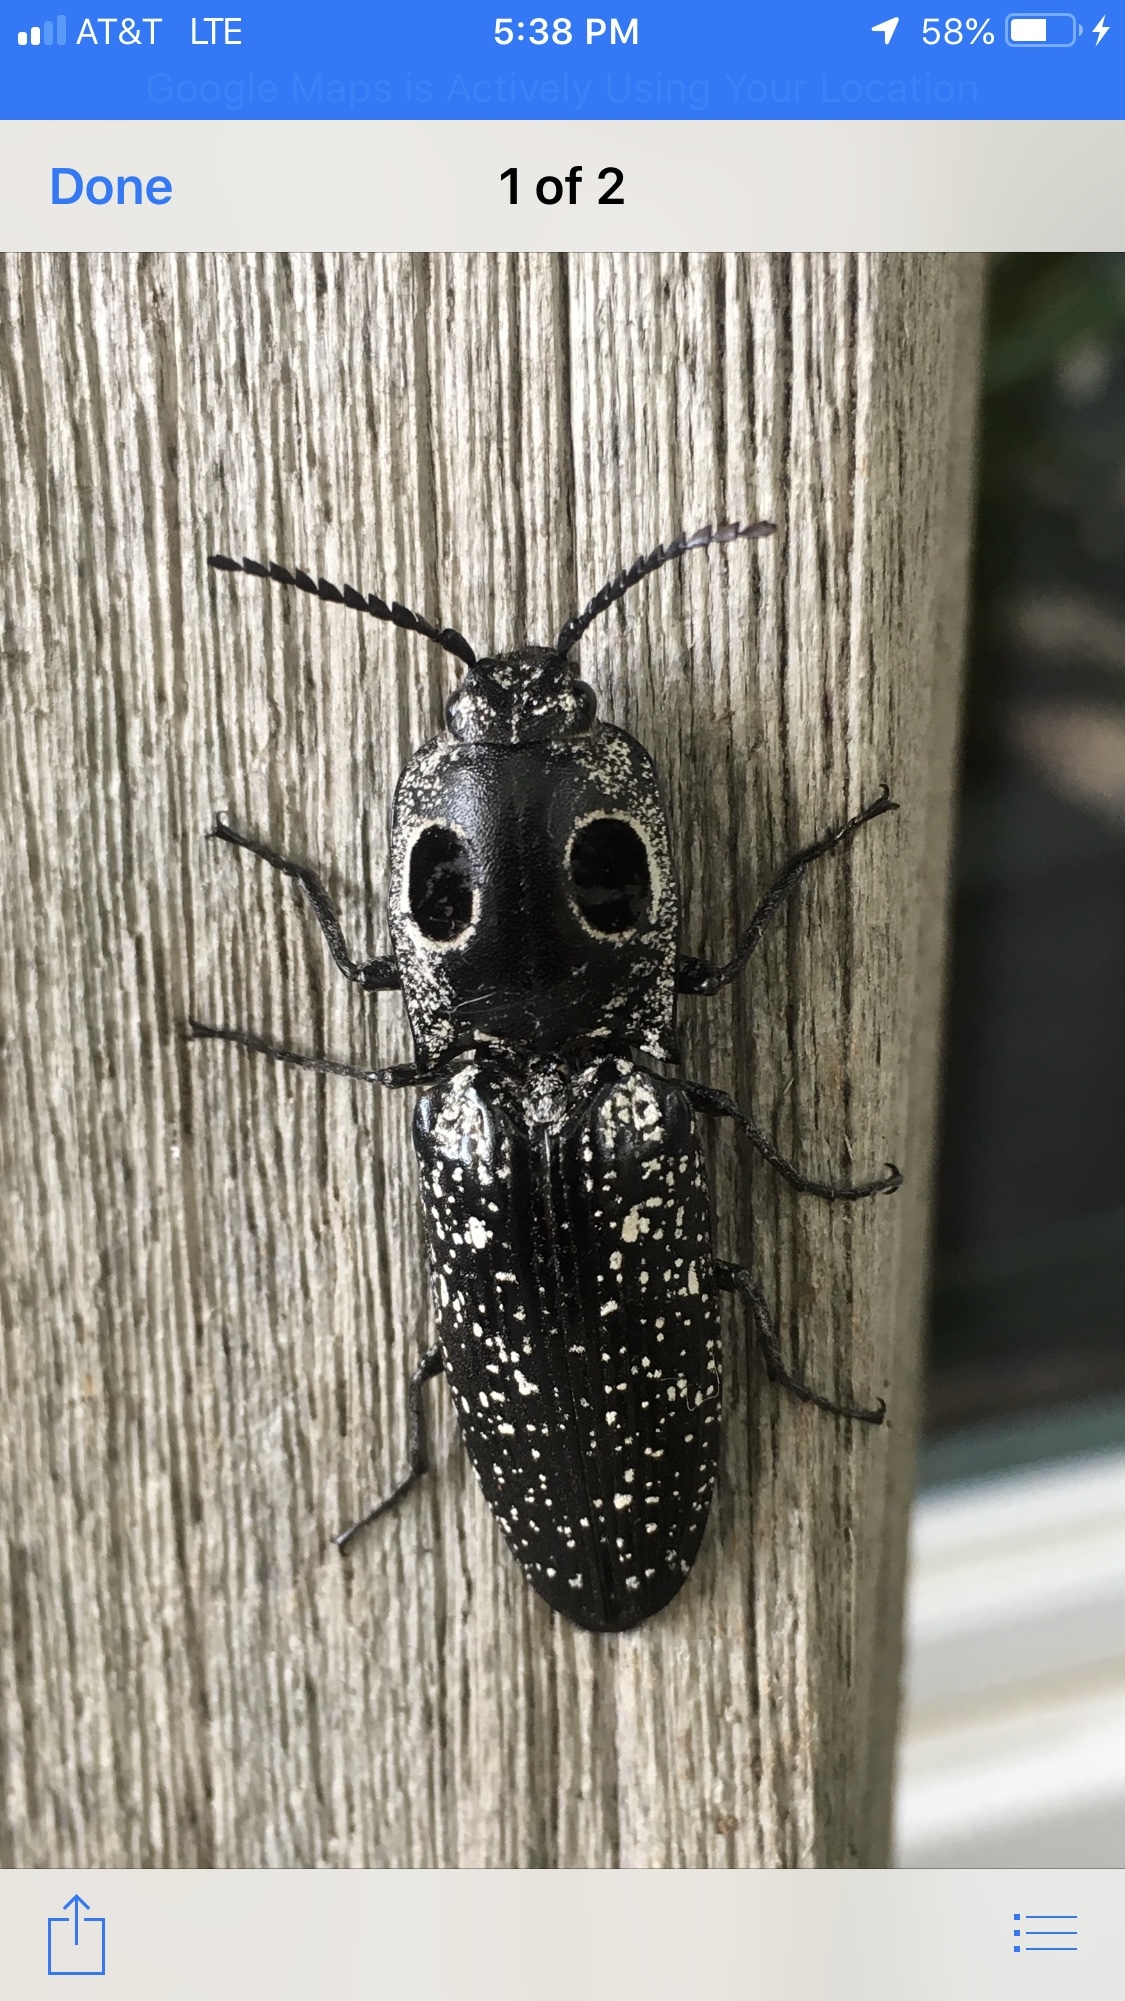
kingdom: Animalia
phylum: Arthropoda
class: Insecta
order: Coleoptera
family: Elateridae
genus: Alaus
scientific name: Alaus oculatus
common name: Eastern eyed click beetle
